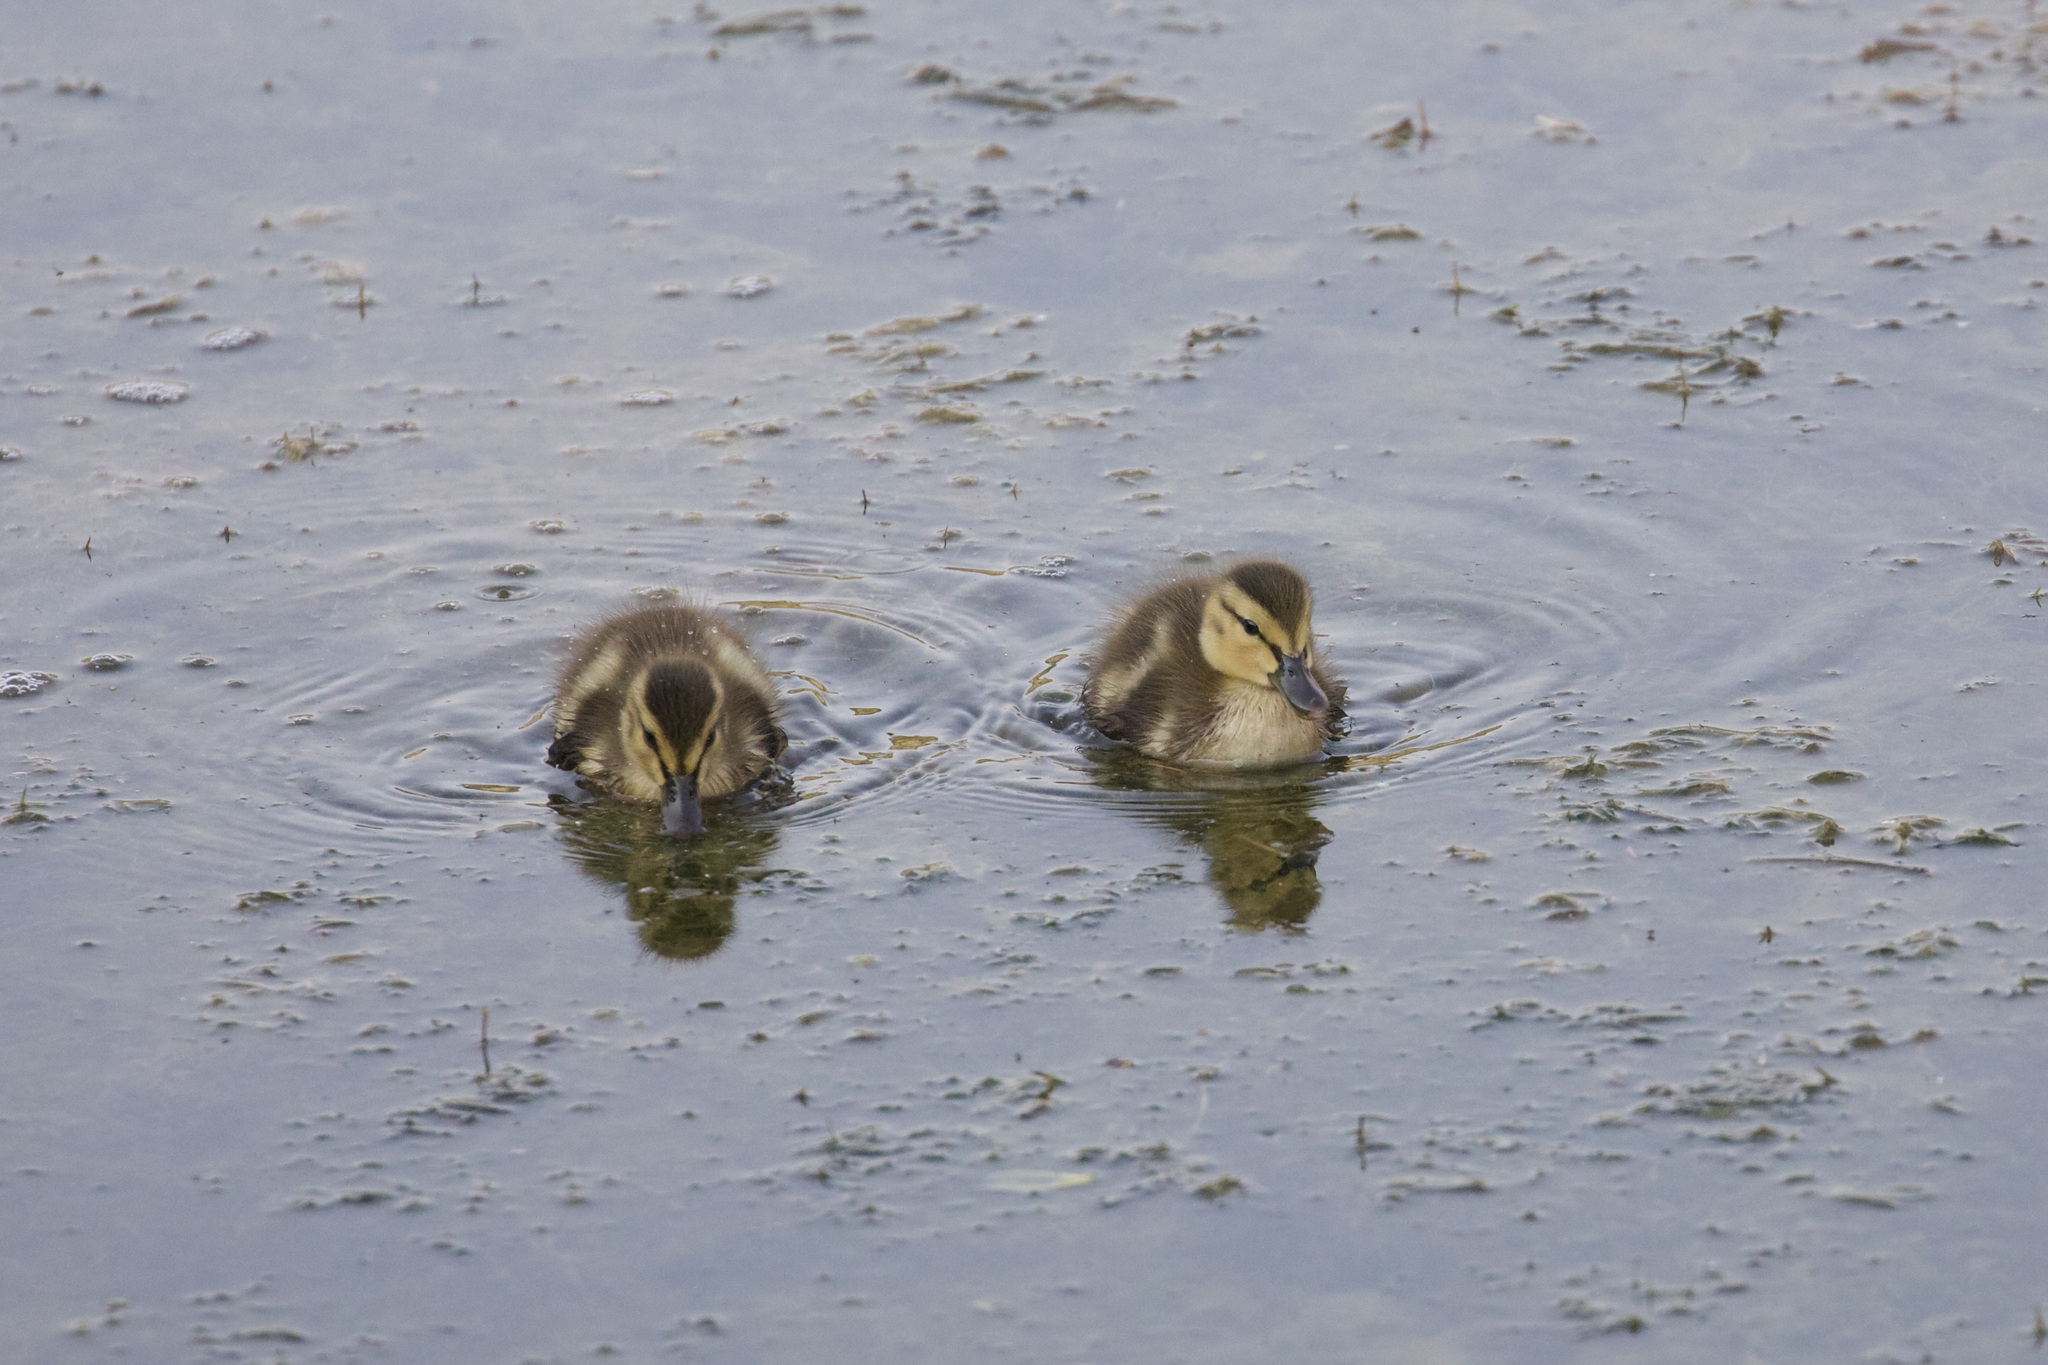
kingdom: Animalia
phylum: Chordata
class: Aves
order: Anseriformes
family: Anatidae
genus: Anas
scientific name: Anas platyrhynchos
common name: Mallard
